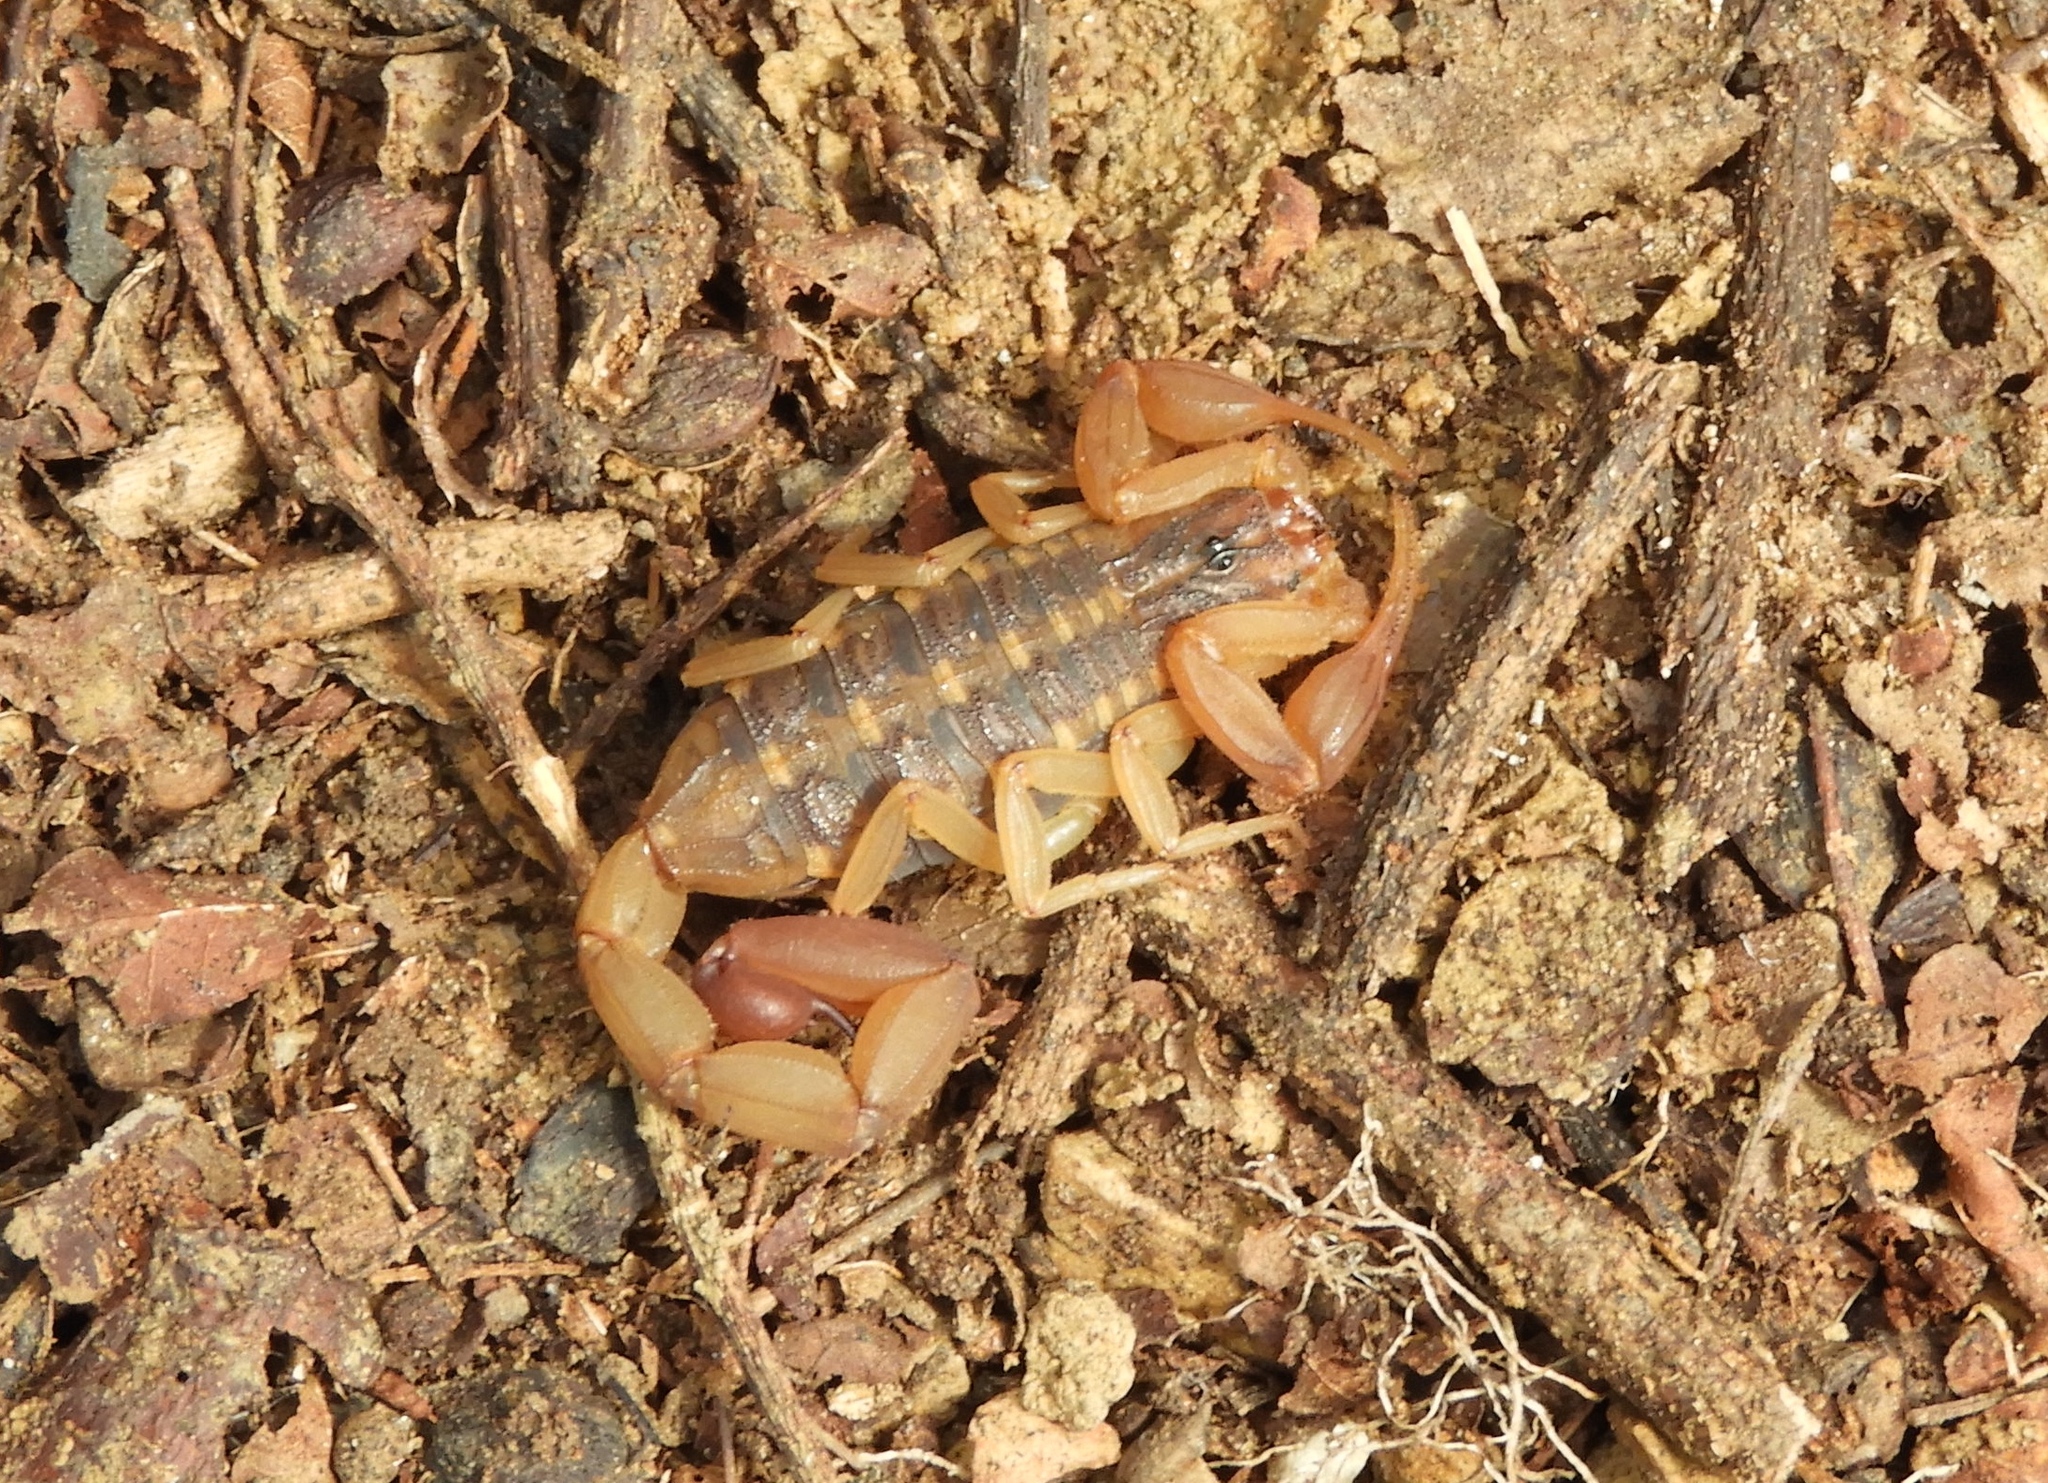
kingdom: Animalia
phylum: Arthropoda
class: Arachnida
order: Scorpiones
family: Buthidae
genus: Centruroides
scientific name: Centruroides baldazoi
